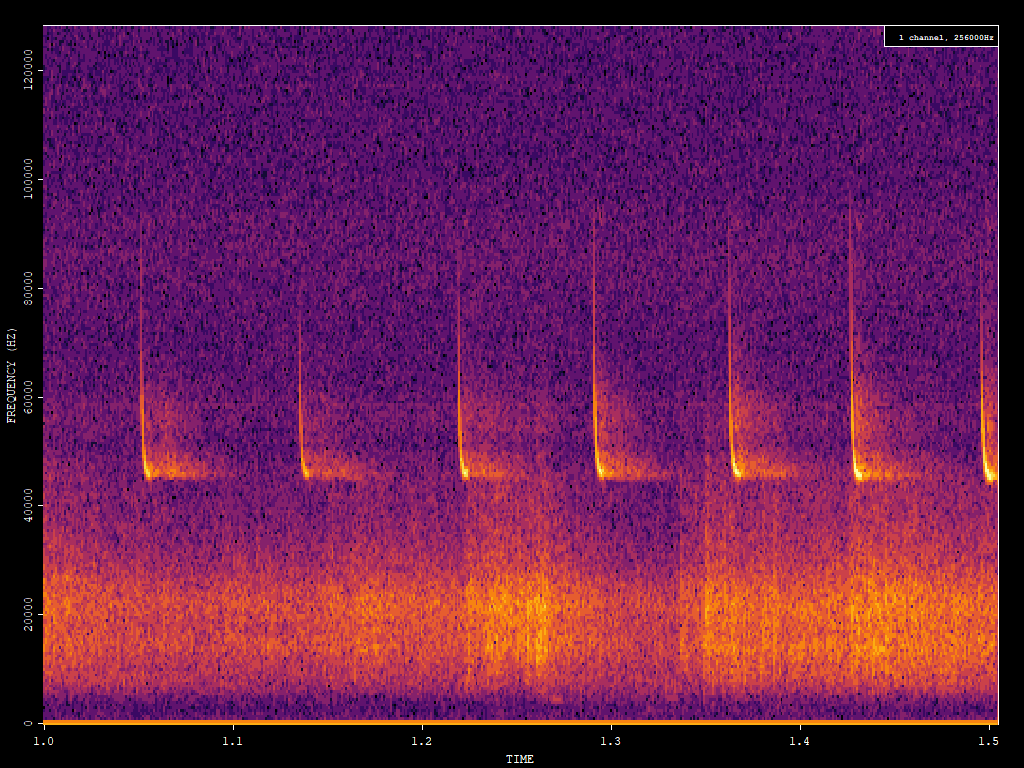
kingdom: Animalia
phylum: Chordata
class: Mammalia
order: Chiroptera
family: Vespertilionidae
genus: Pipistrellus
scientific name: Pipistrellus pipistrellus
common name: Common pipistrelle
